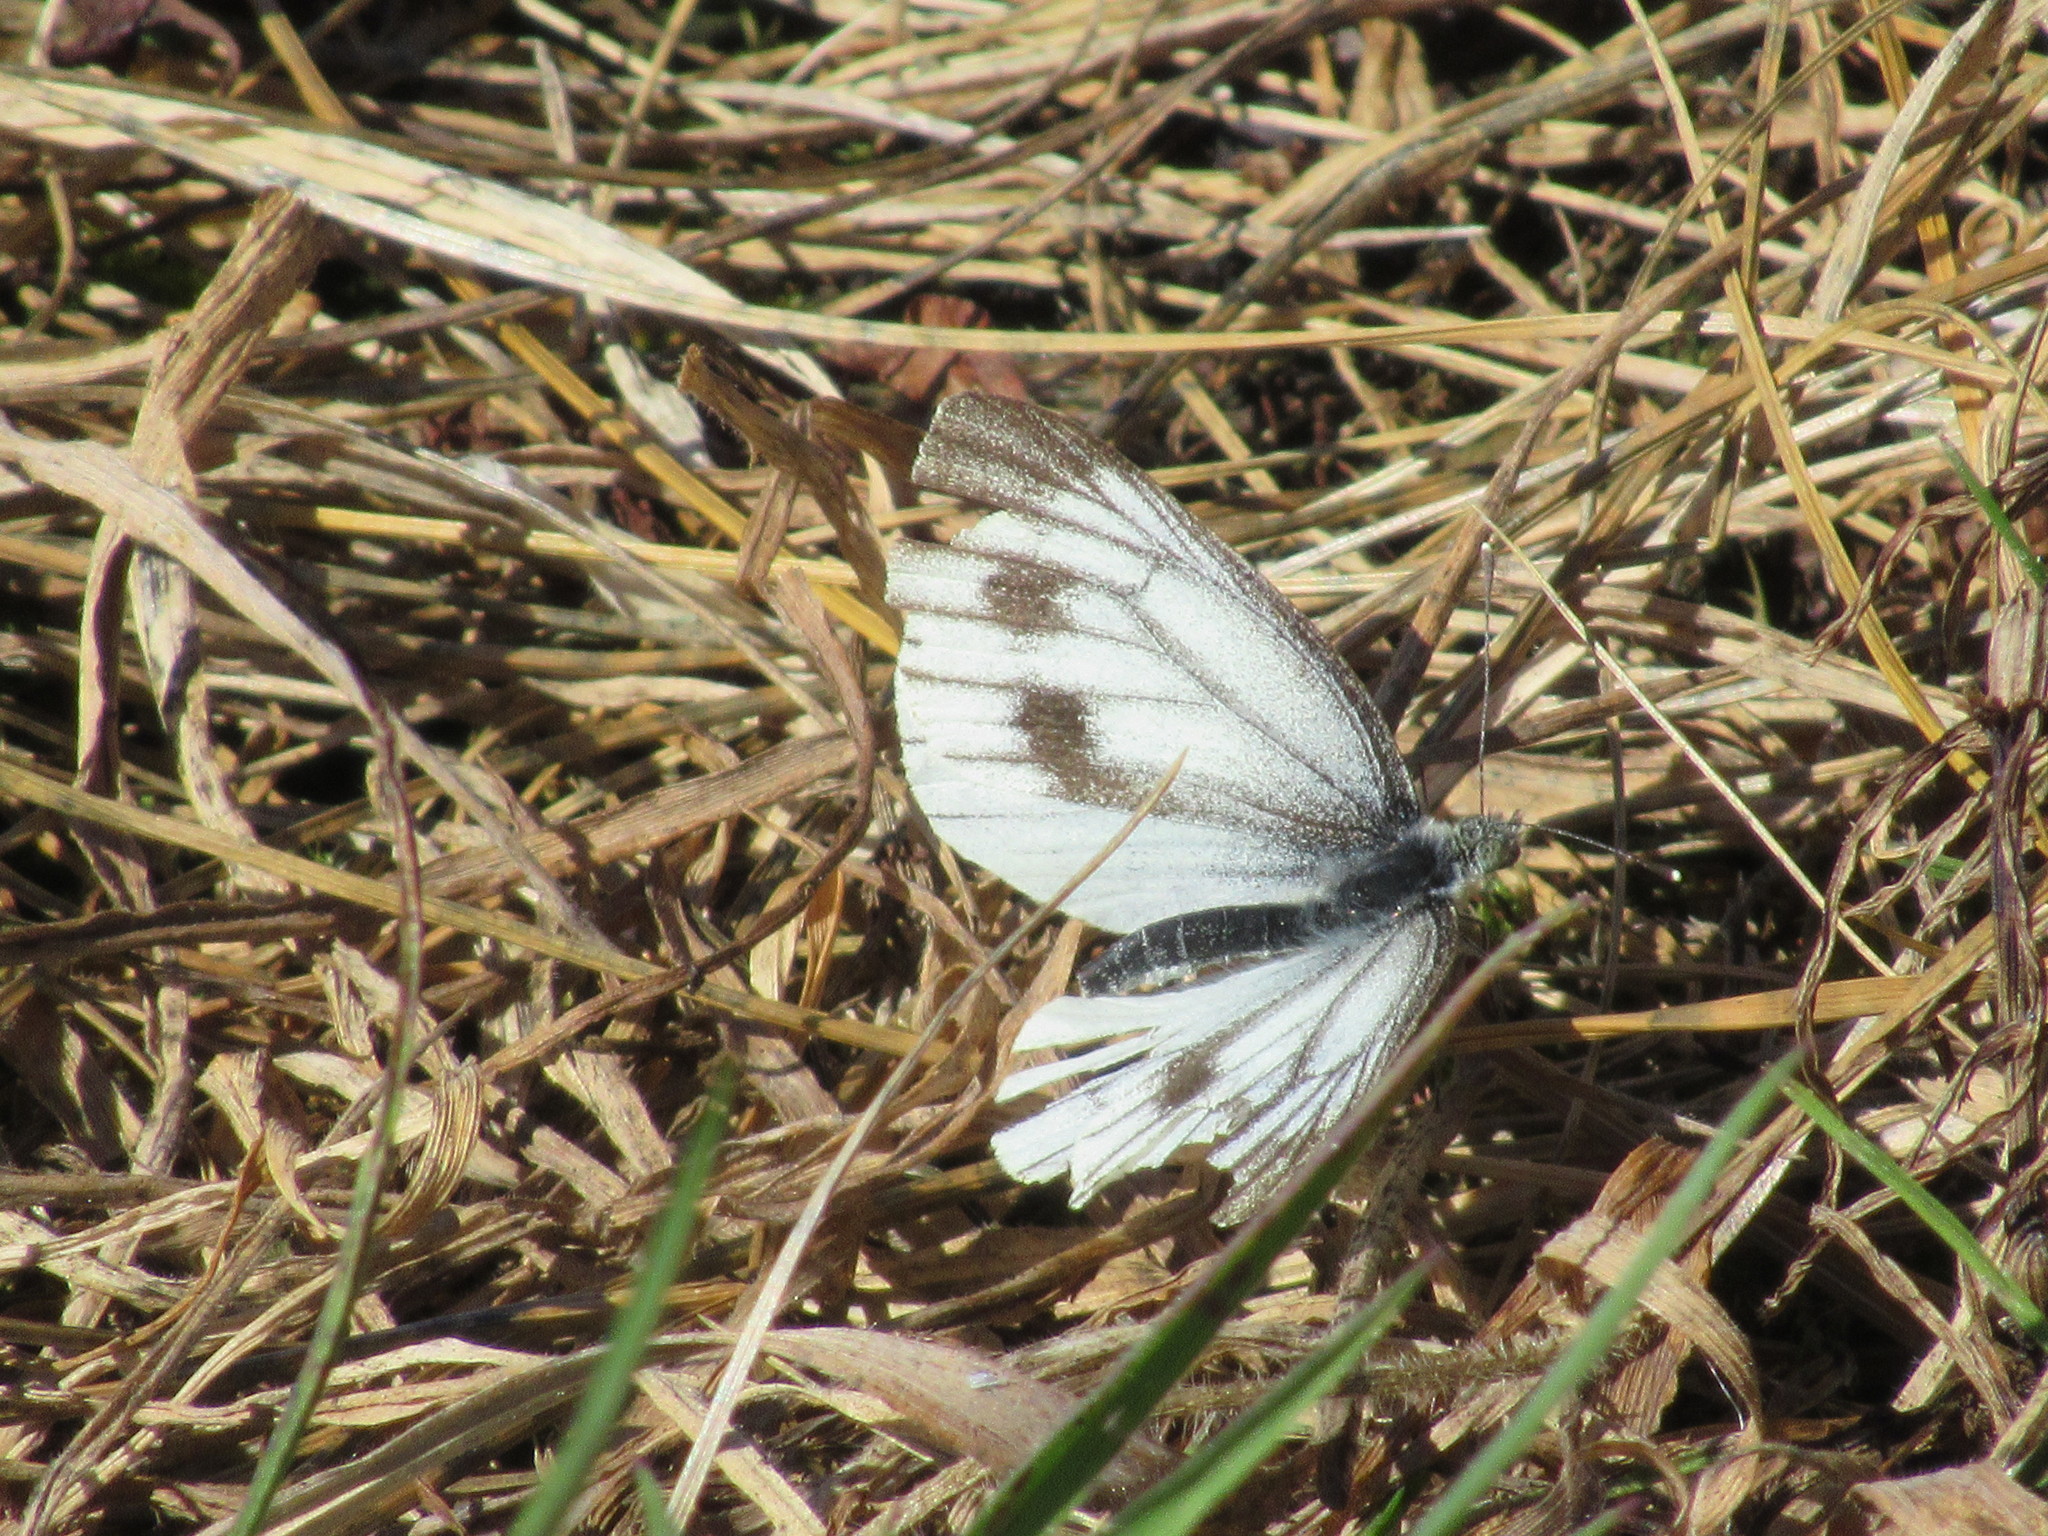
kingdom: Animalia
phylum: Arthropoda
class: Insecta
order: Lepidoptera
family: Pieridae
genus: Pieris
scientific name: Pieris napi
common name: Green-veined white
